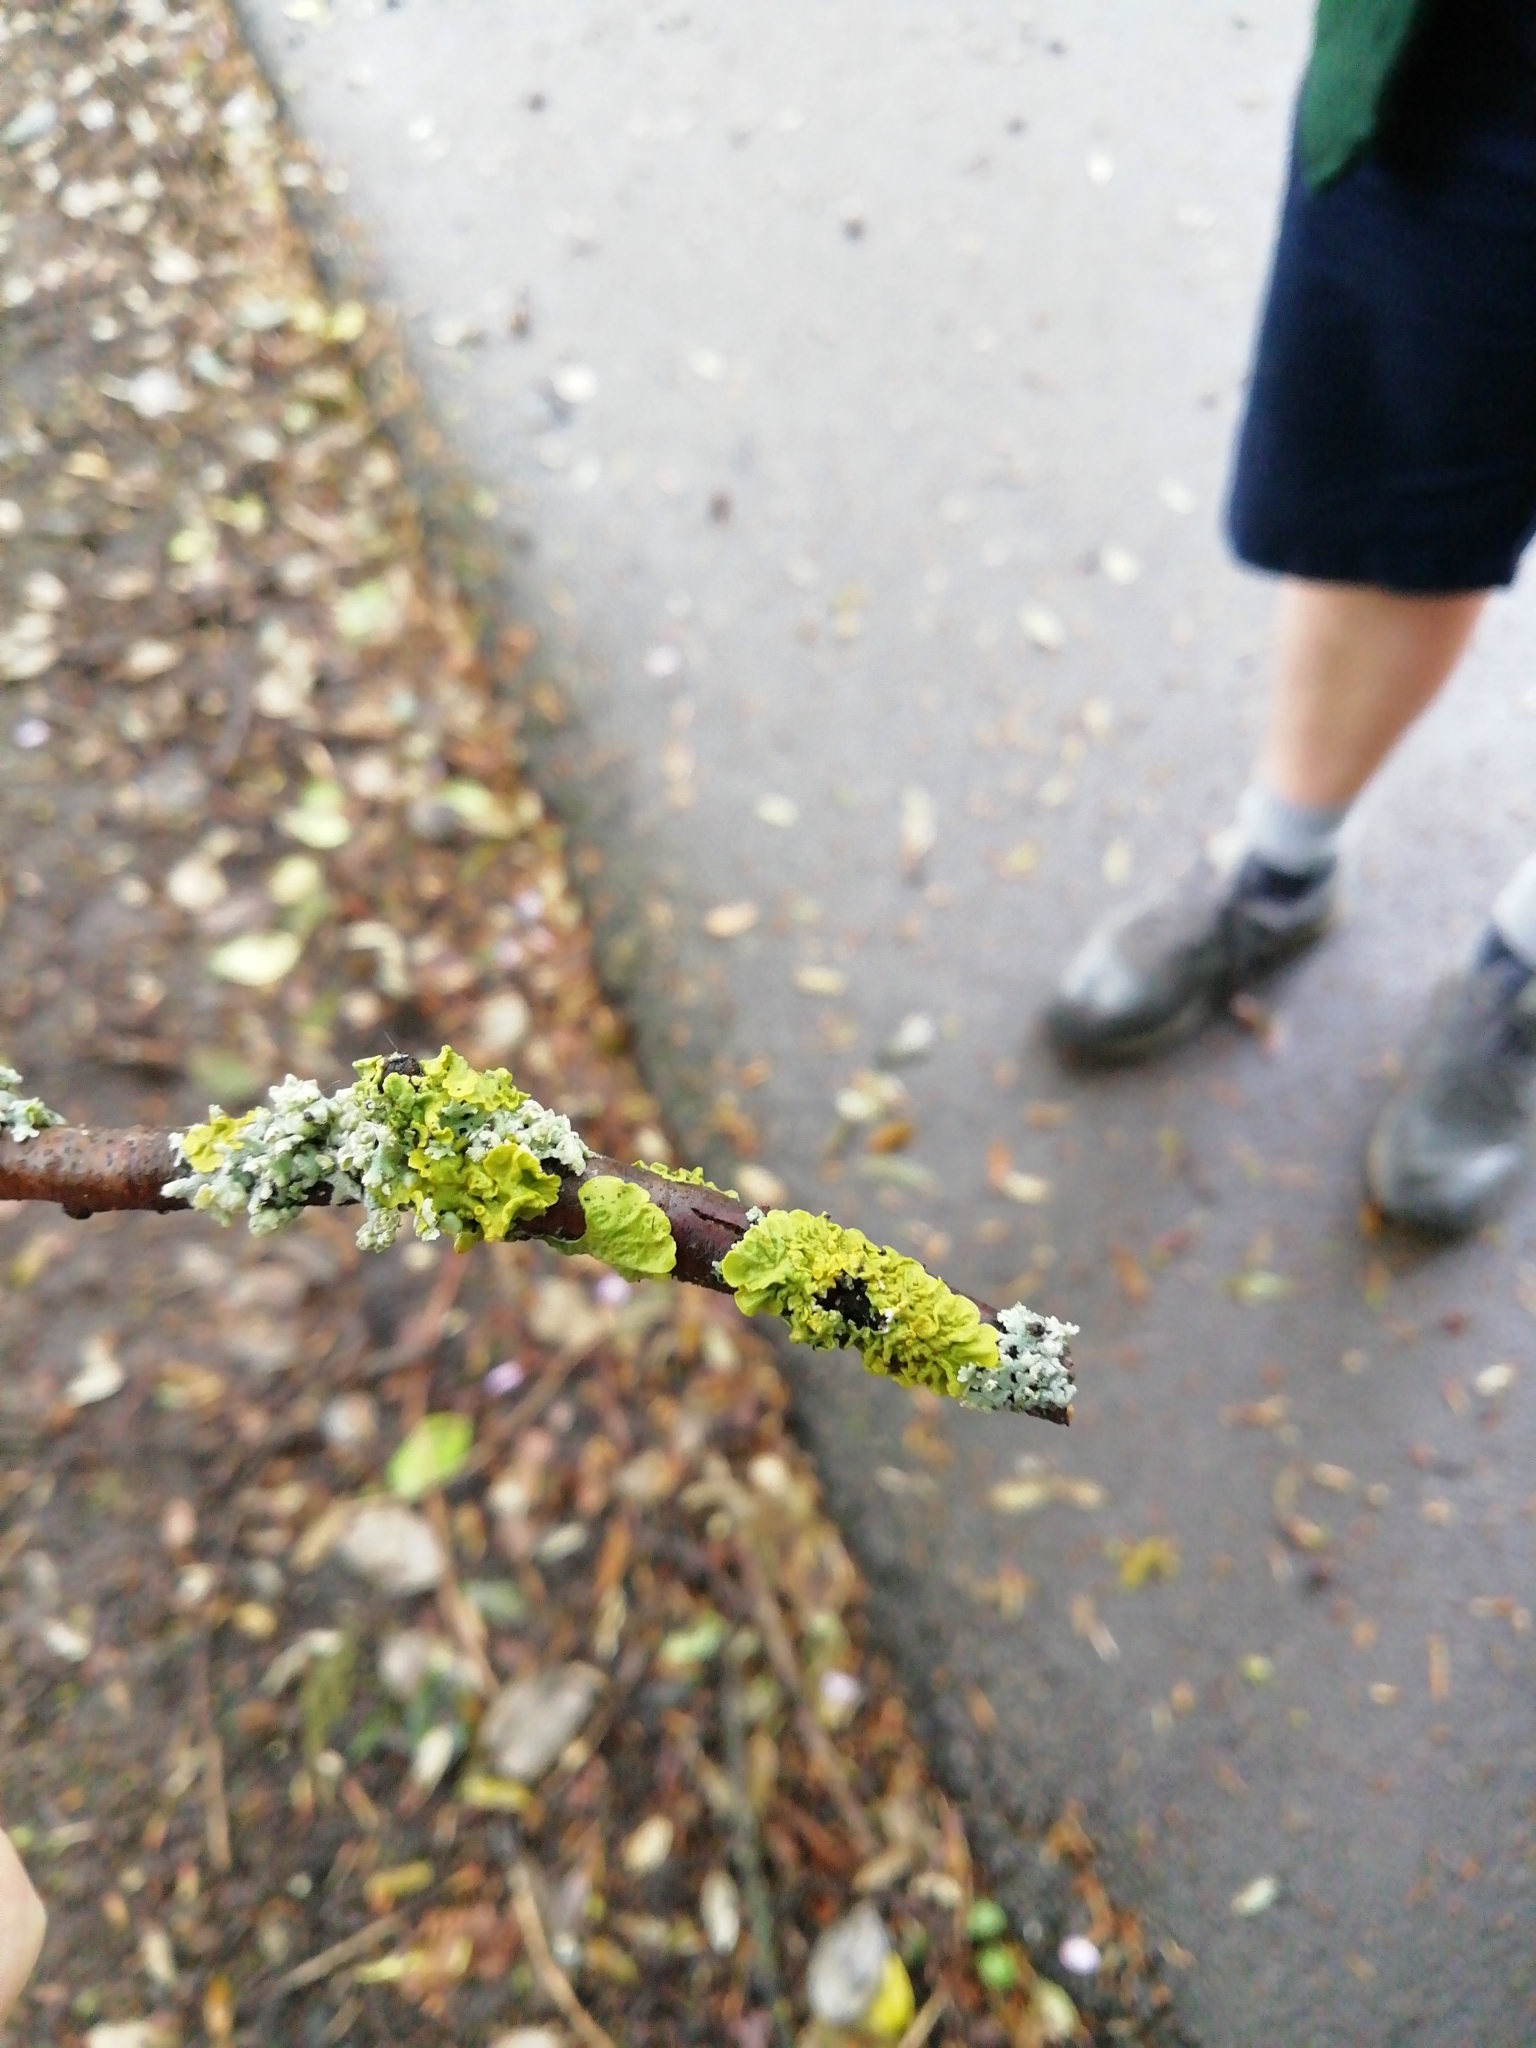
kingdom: Fungi
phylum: Ascomycota
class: Lecanoromycetes
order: Teloschistales
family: Teloschistaceae
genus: Xanthoria
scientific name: Xanthoria parietina
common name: Common orange lichen
